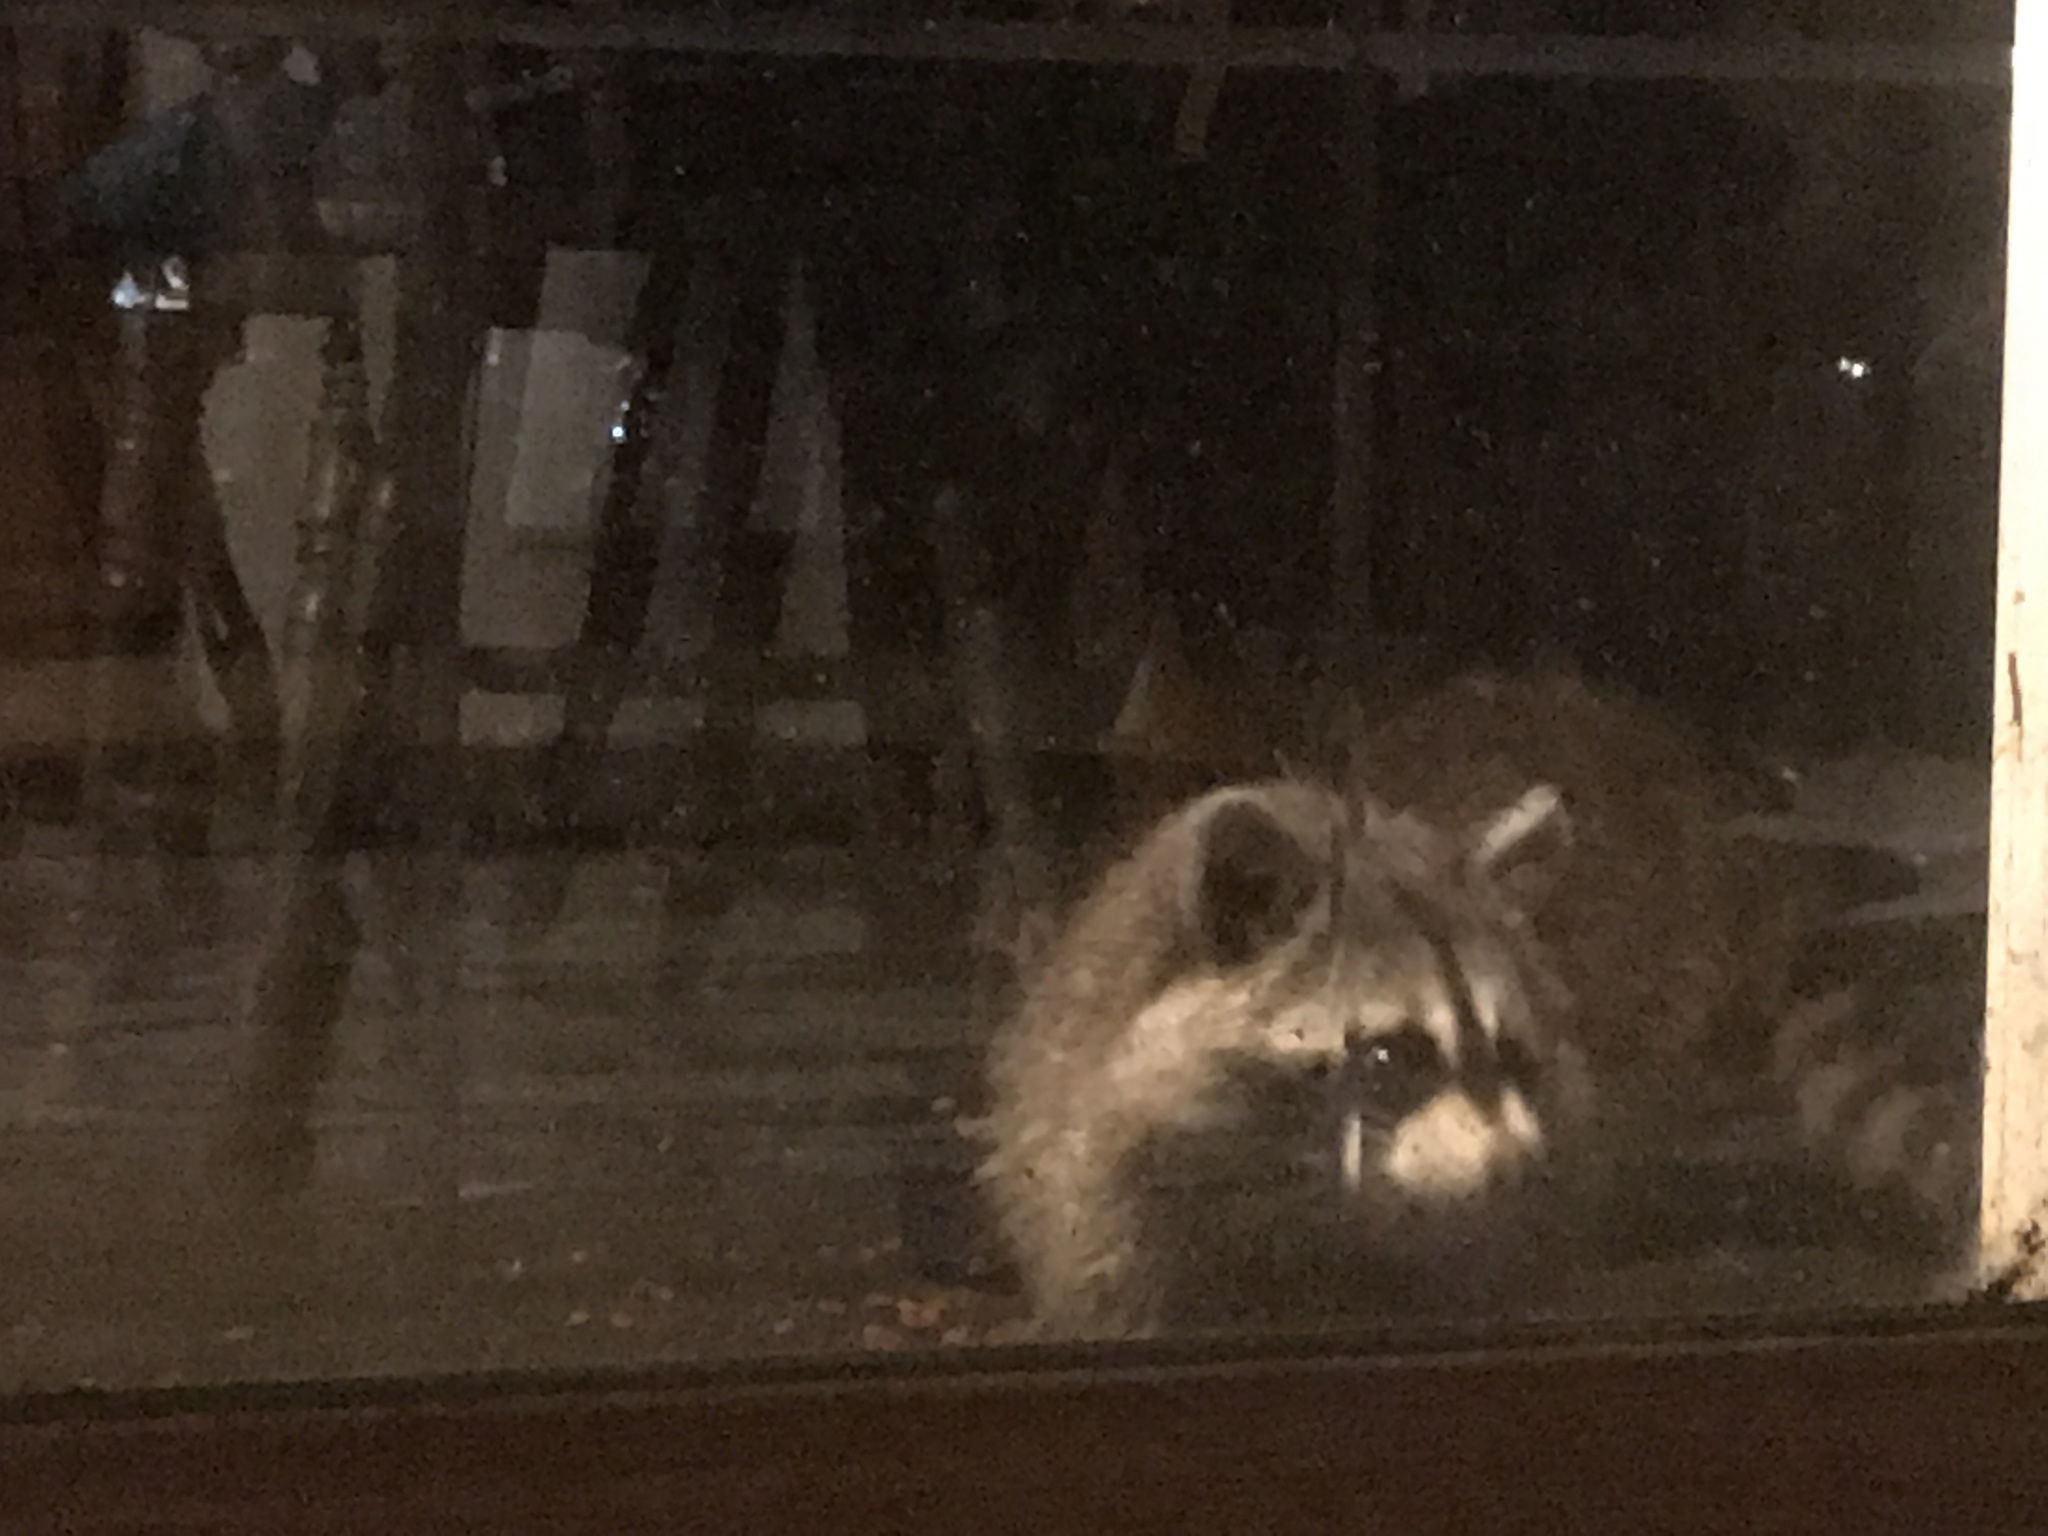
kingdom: Animalia
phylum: Chordata
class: Mammalia
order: Carnivora
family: Procyonidae
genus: Procyon
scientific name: Procyon lotor
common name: Raccoon
